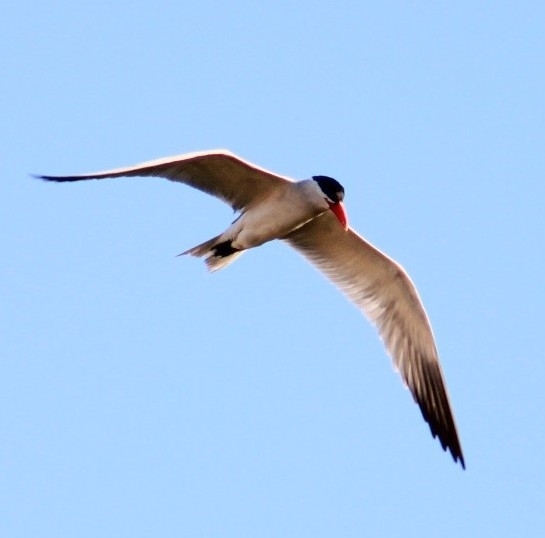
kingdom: Animalia
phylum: Chordata
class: Aves
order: Charadriiformes
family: Laridae
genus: Hydroprogne
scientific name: Hydroprogne caspia
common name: Caspian tern
